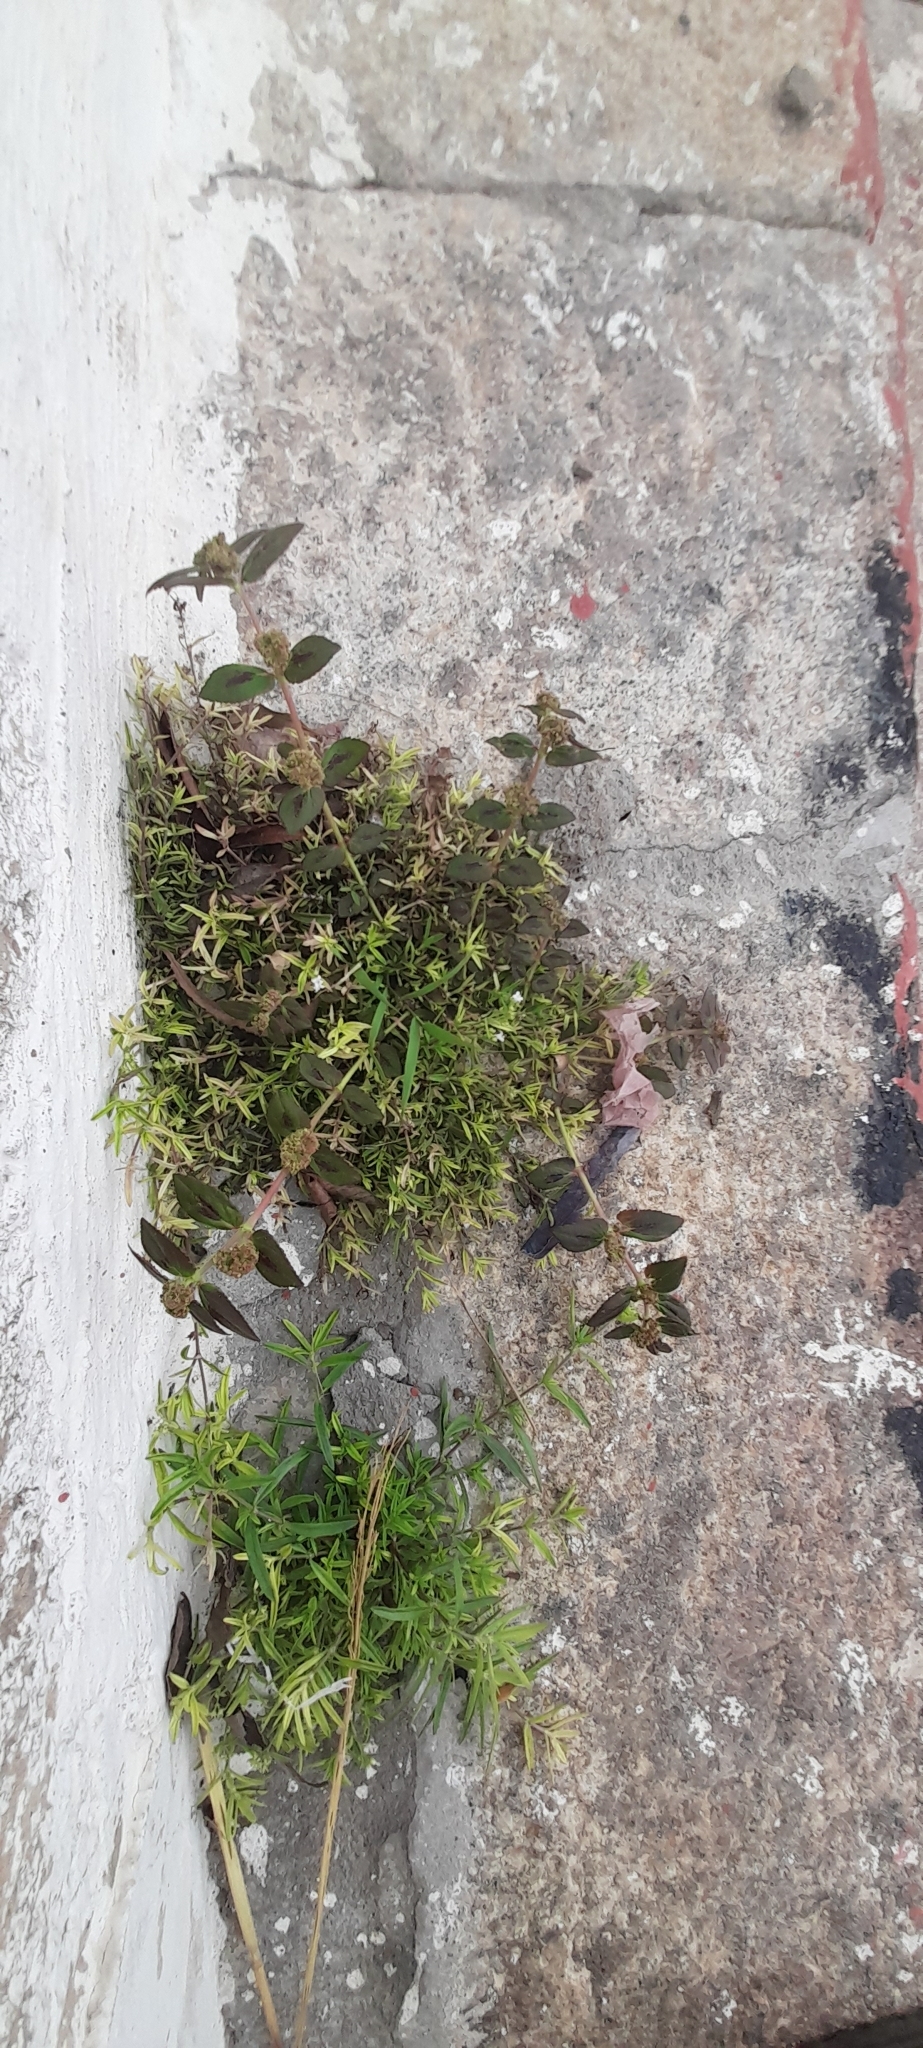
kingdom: Plantae
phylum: Tracheophyta
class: Magnoliopsida
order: Malpighiales
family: Euphorbiaceae
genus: Euphorbia
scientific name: Euphorbia hirta
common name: Pillpod sandmat
